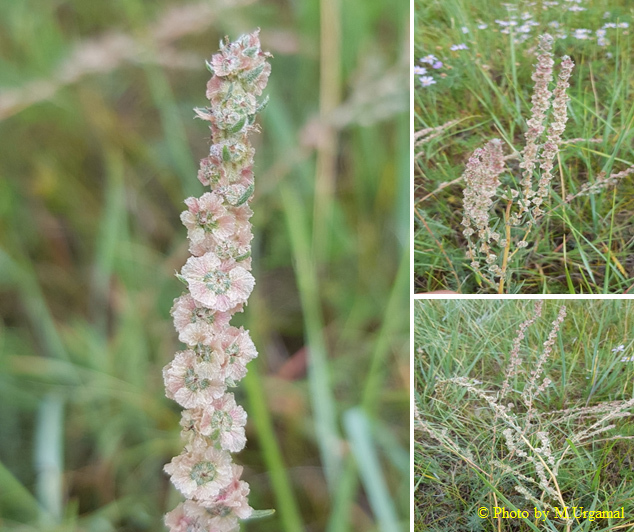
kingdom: Plantae
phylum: Tracheophyta
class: Magnoliopsida
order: Caryophyllales
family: Amaranthaceae
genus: Bassia
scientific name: Bassia prostrata
